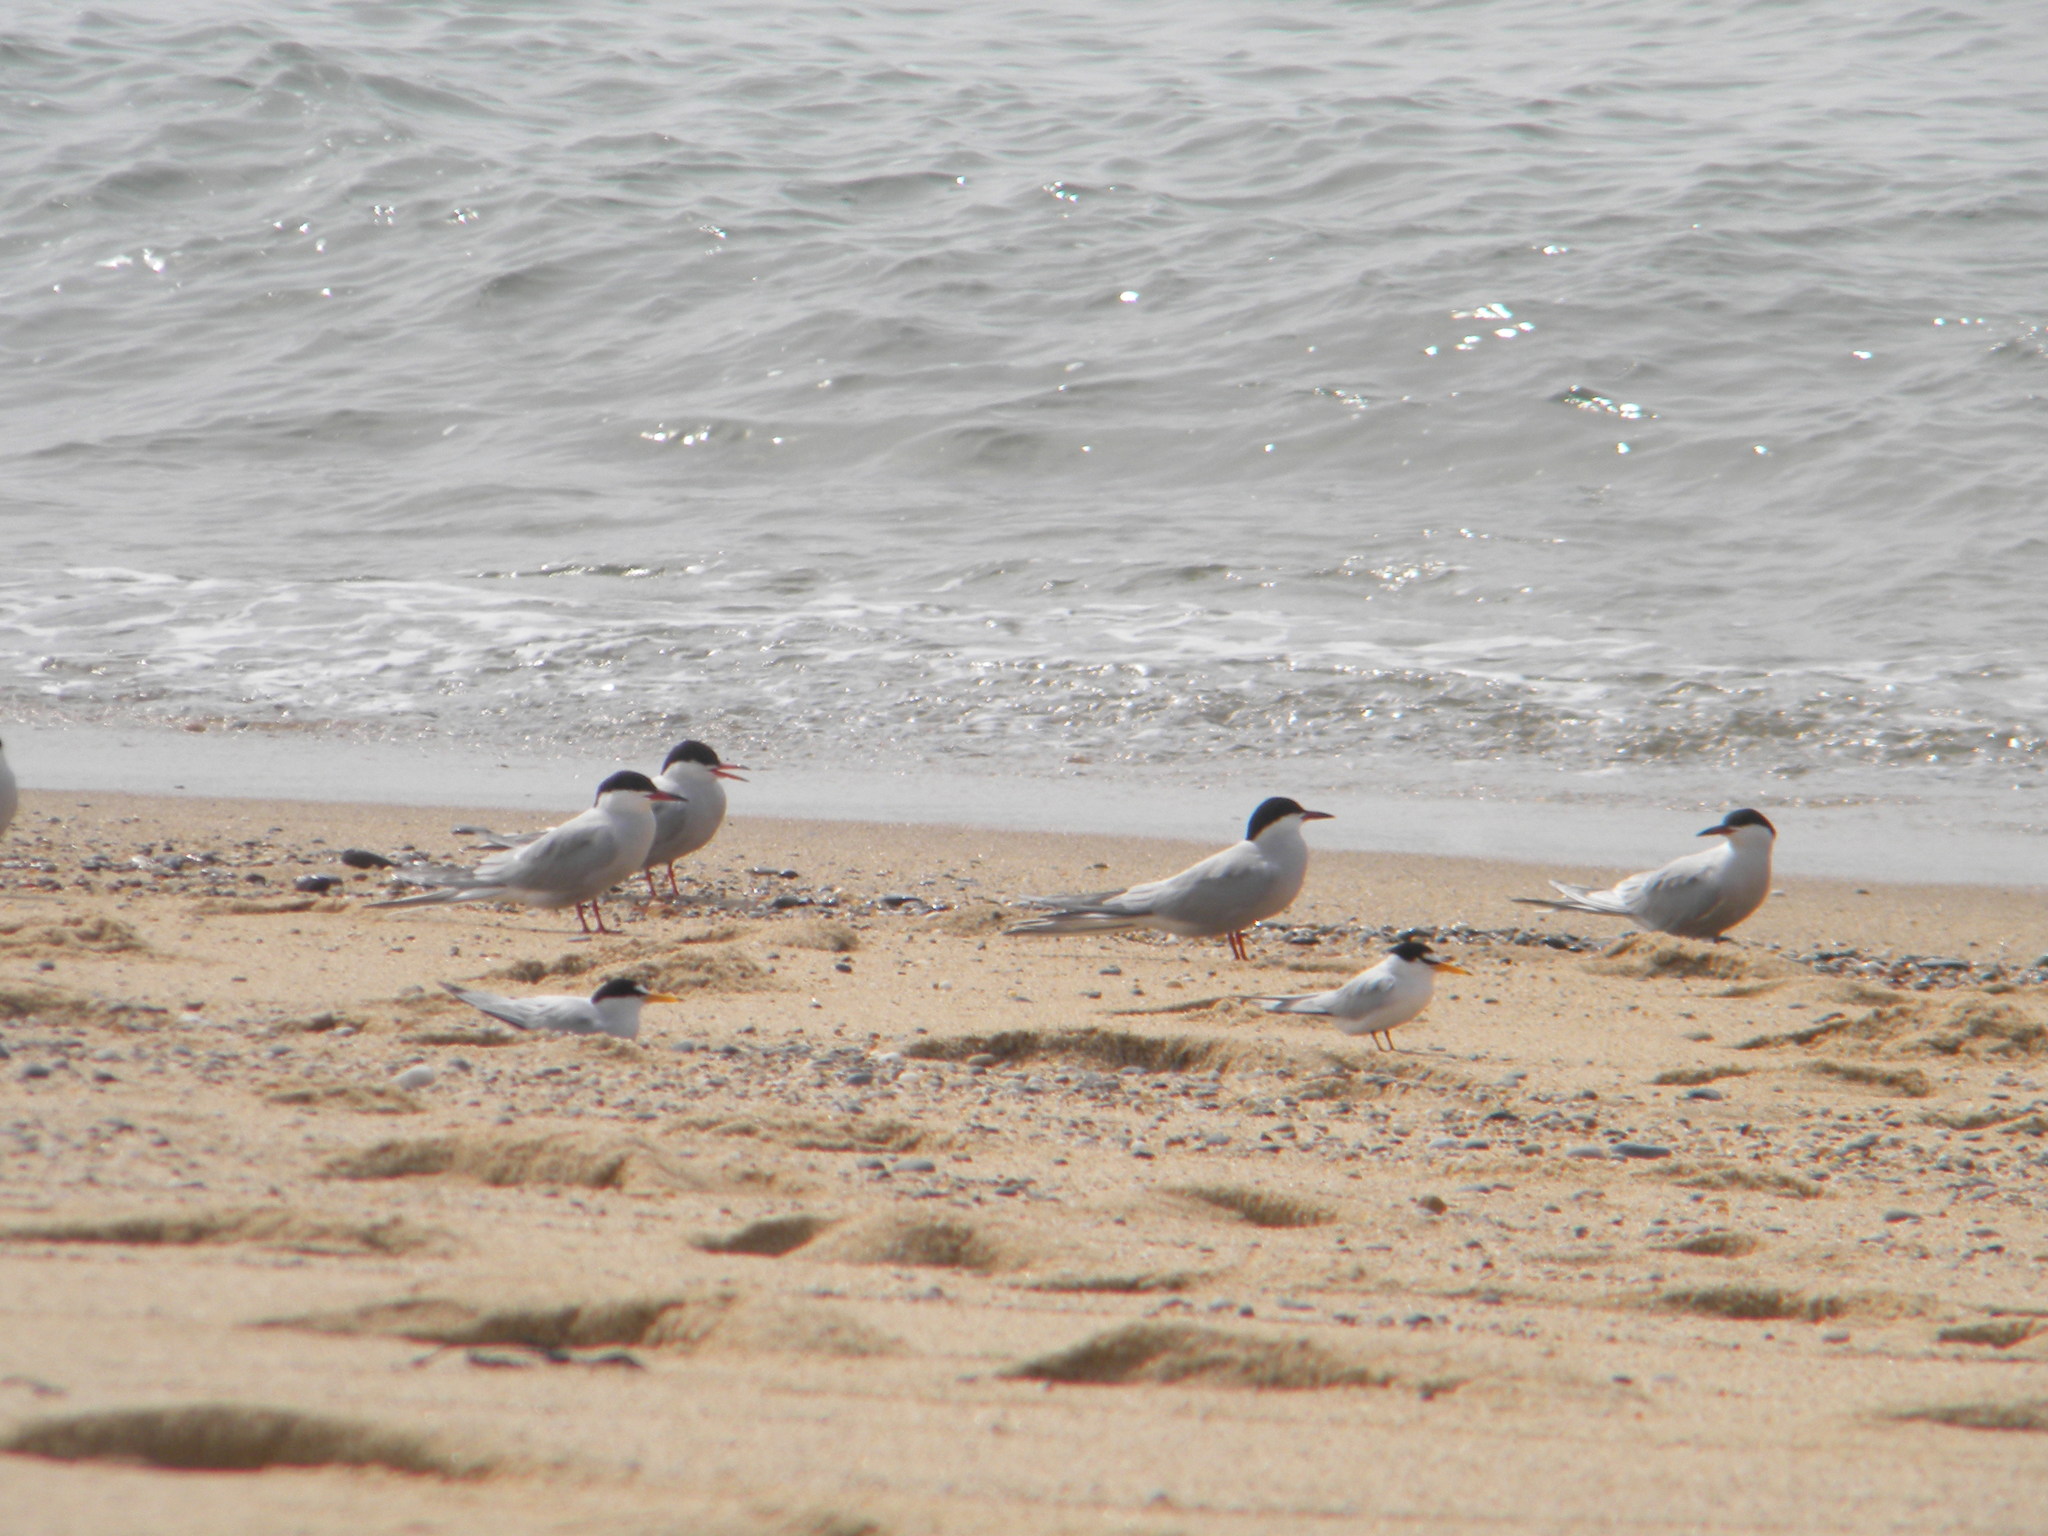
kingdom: Animalia
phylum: Chordata
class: Aves
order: Charadriiformes
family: Laridae
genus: Sterna
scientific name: Sterna hirundo
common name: Common tern
